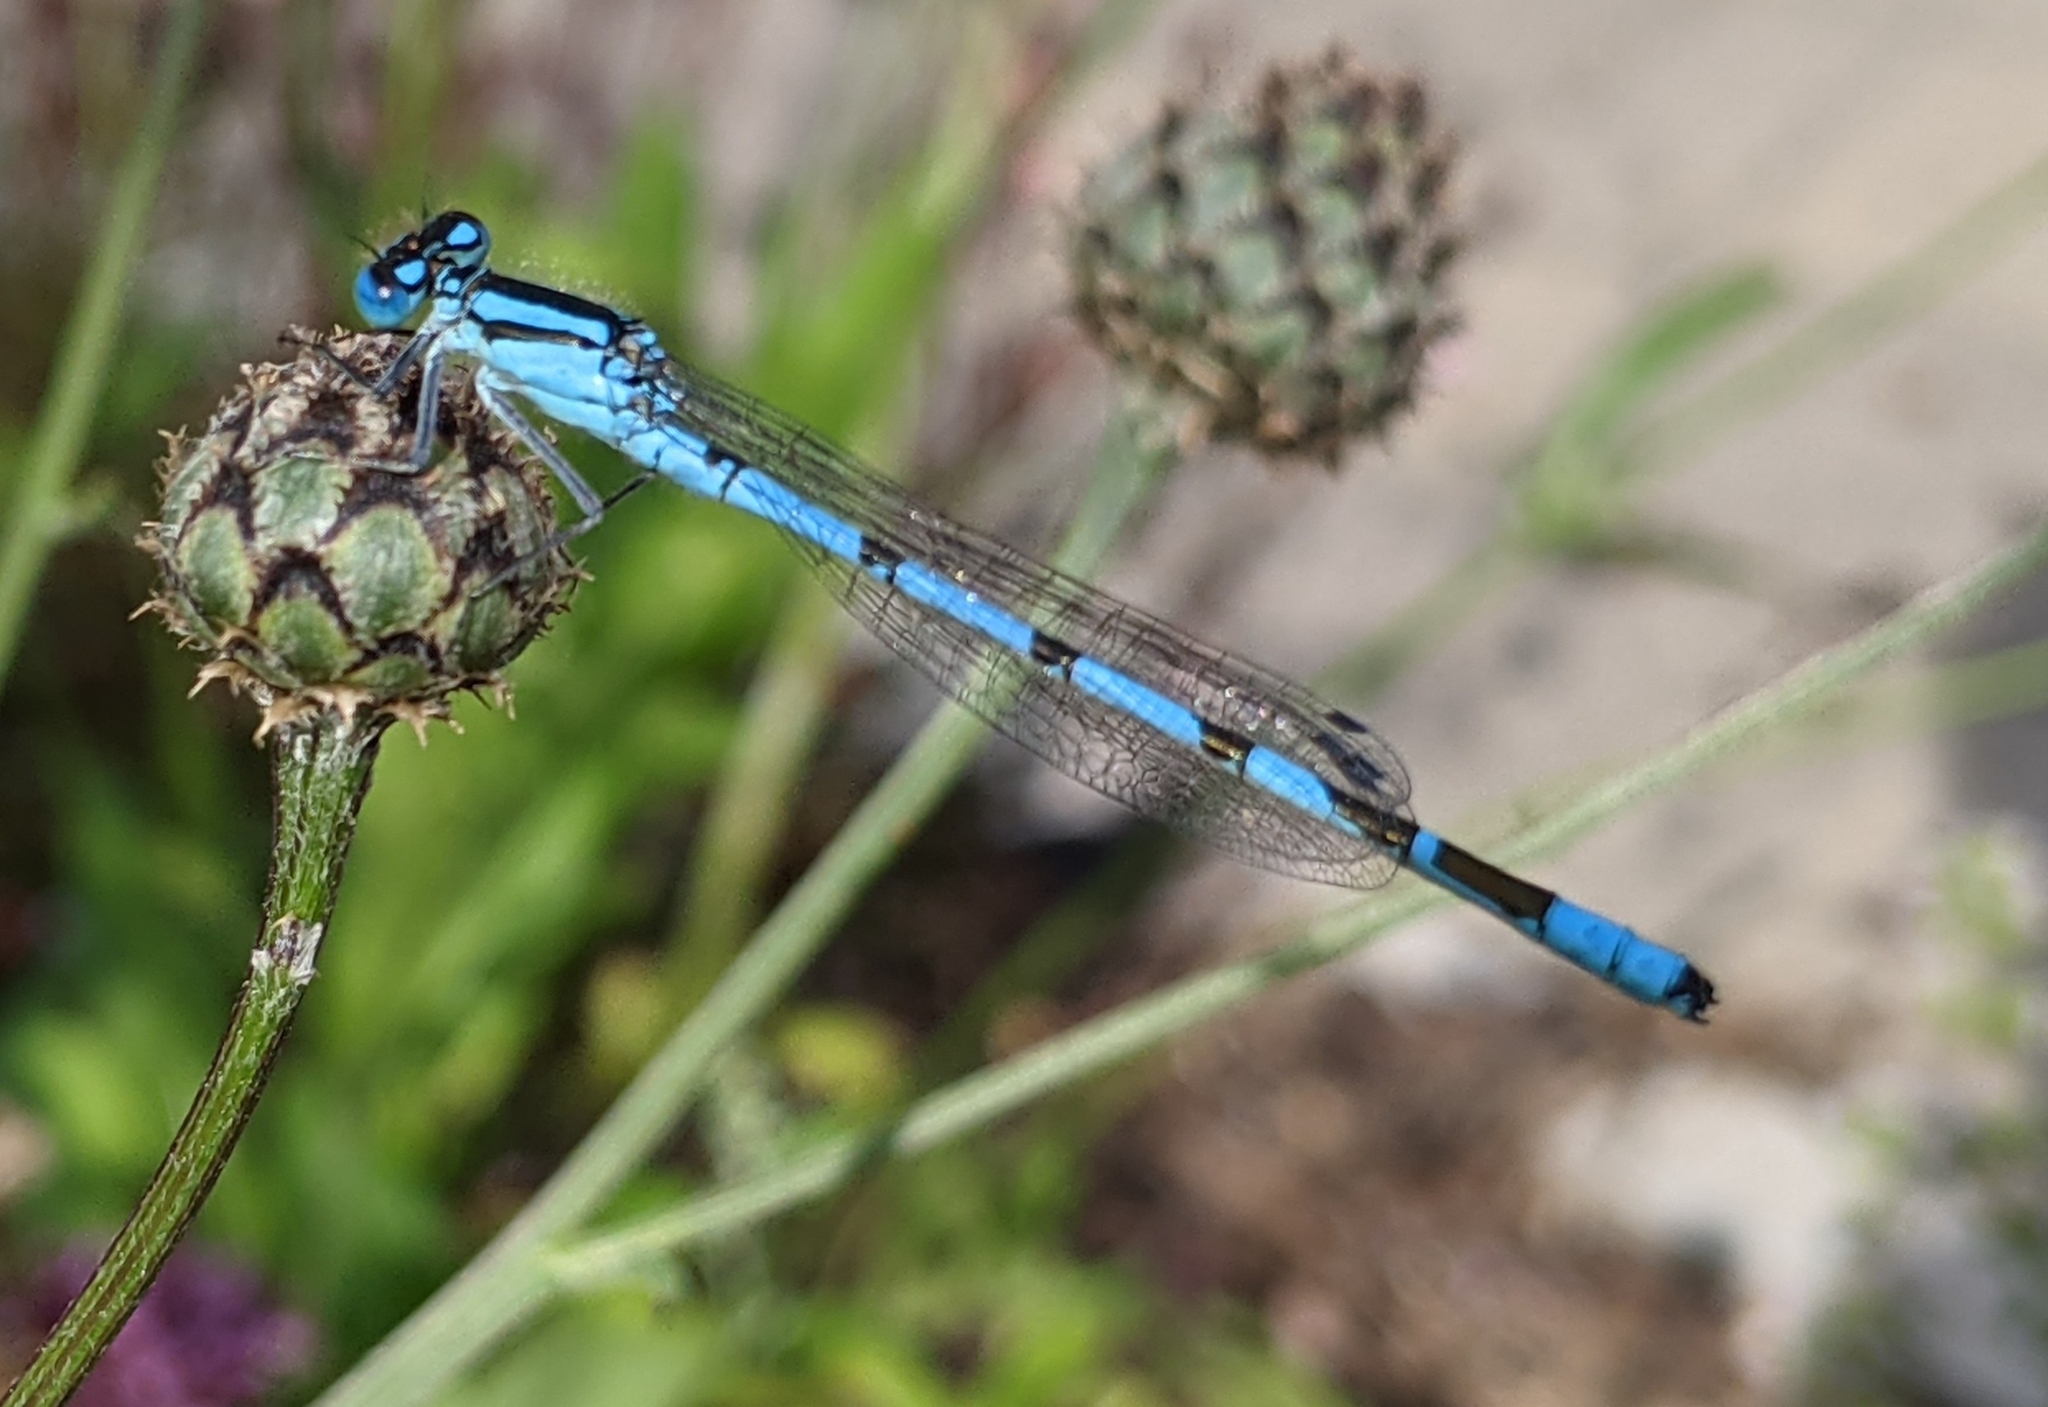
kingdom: Animalia
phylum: Arthropoda
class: Insecta
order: Odonata
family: Coenagrionidae
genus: Enallagma
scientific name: Enallagma cyathigerum
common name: Common blue damselfly
